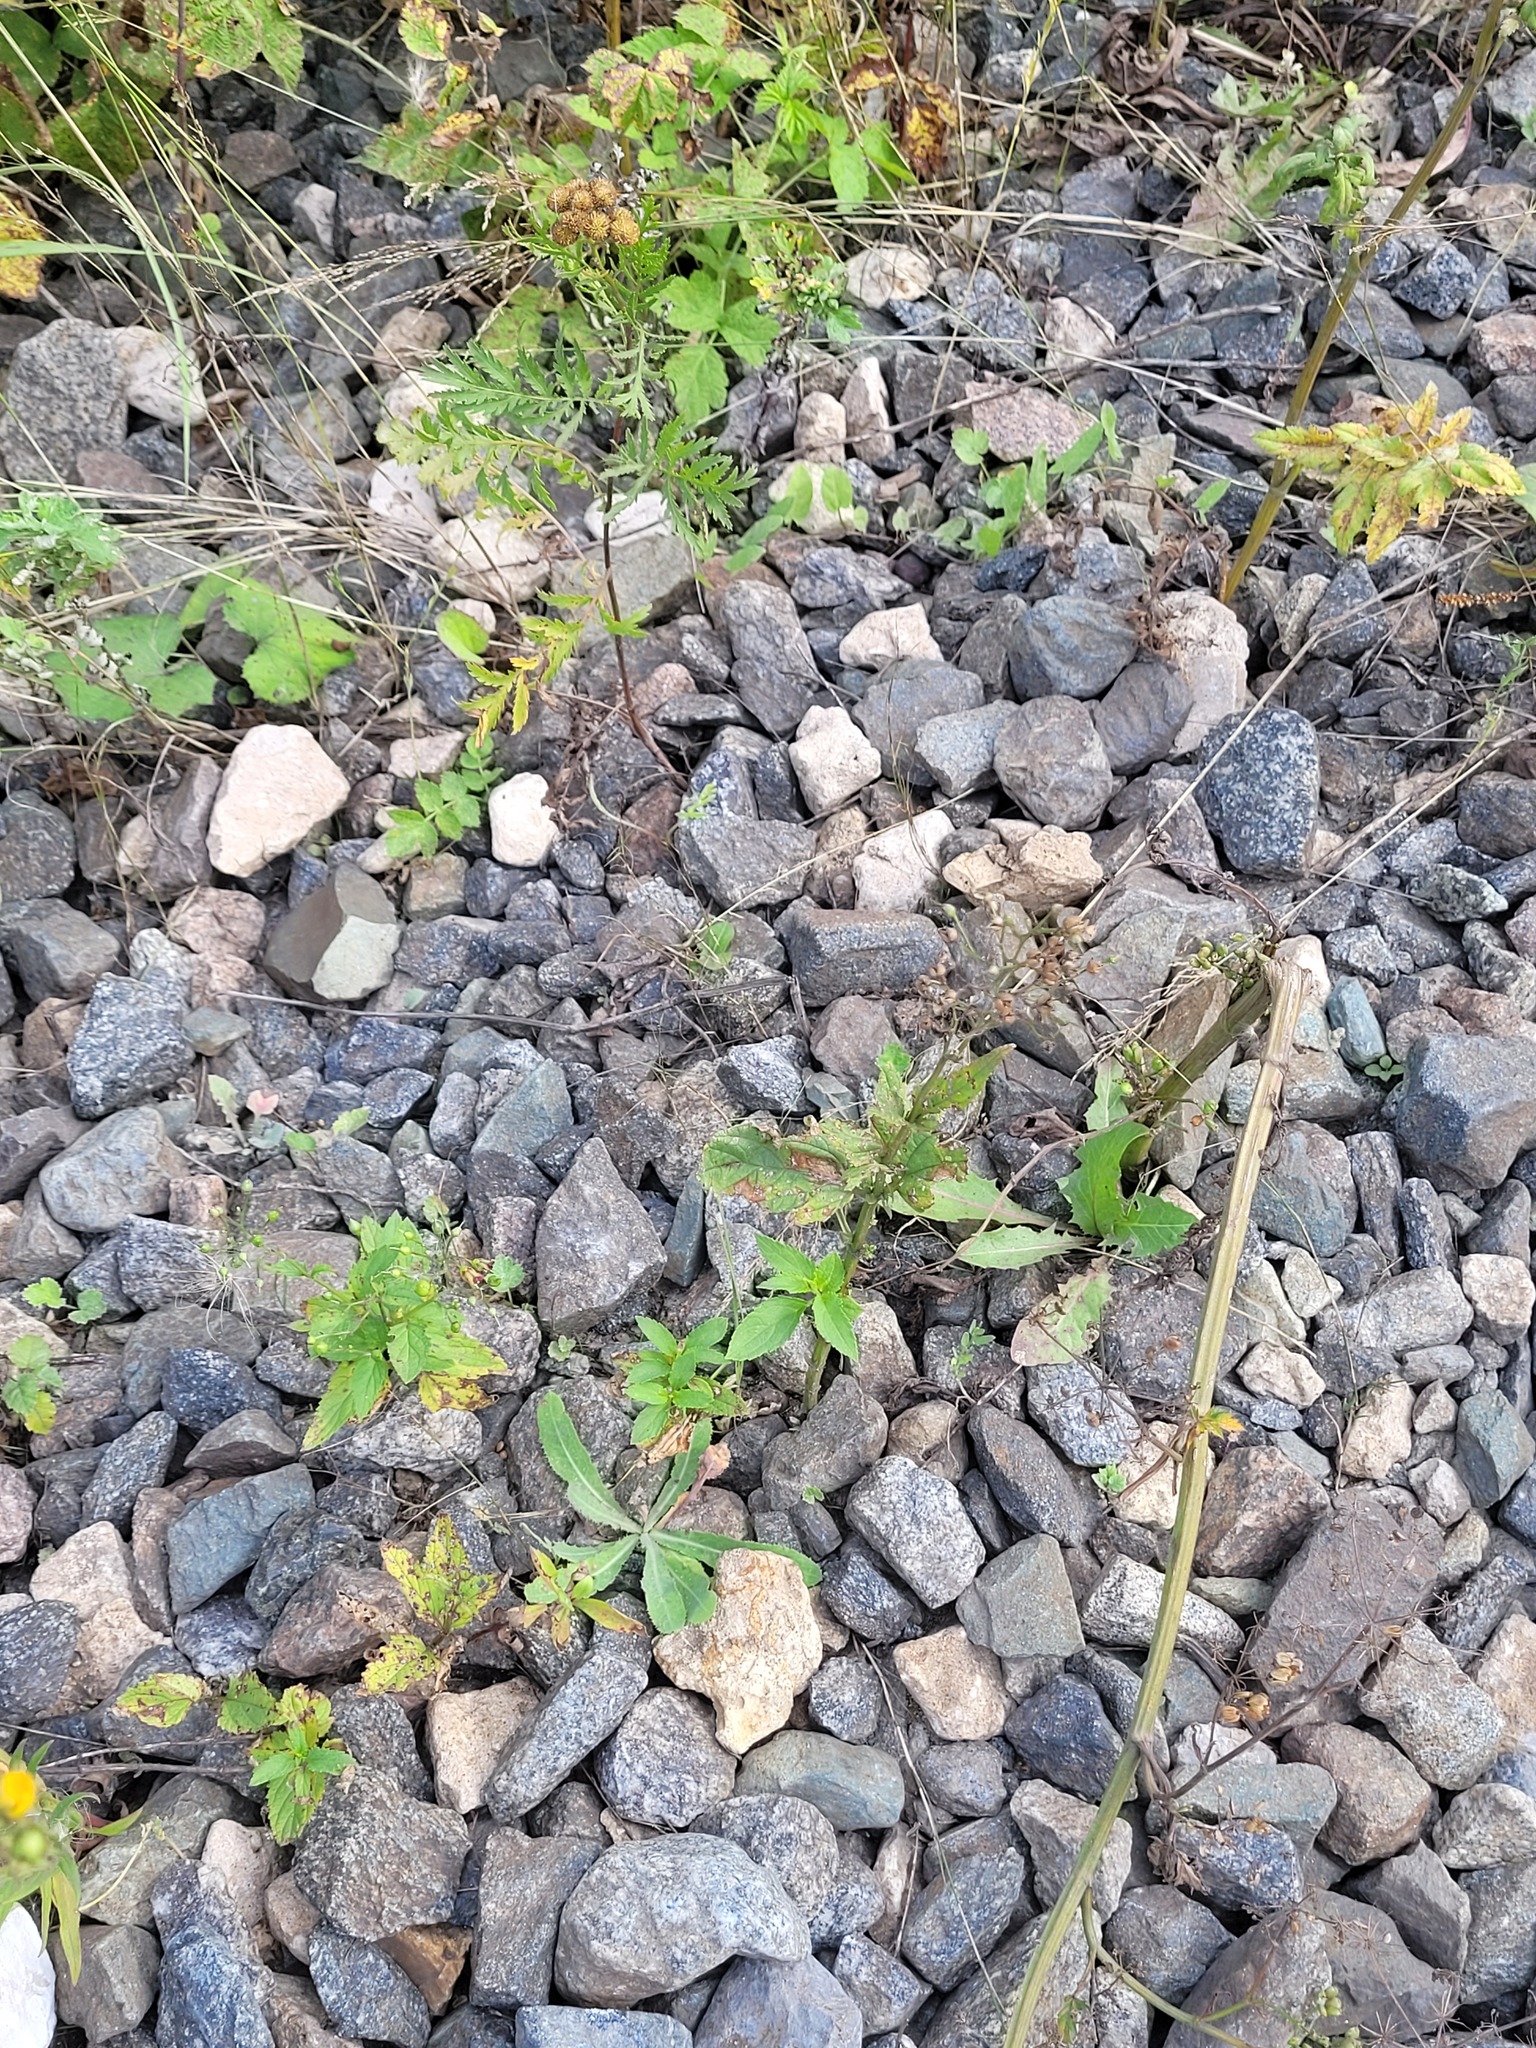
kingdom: Plantae
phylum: Tracheophyta
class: Magnoliopsida
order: Lamiales
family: Scrophulariaceae
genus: Scrophularia
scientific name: Scrophularia nodosa
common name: Common figwort
